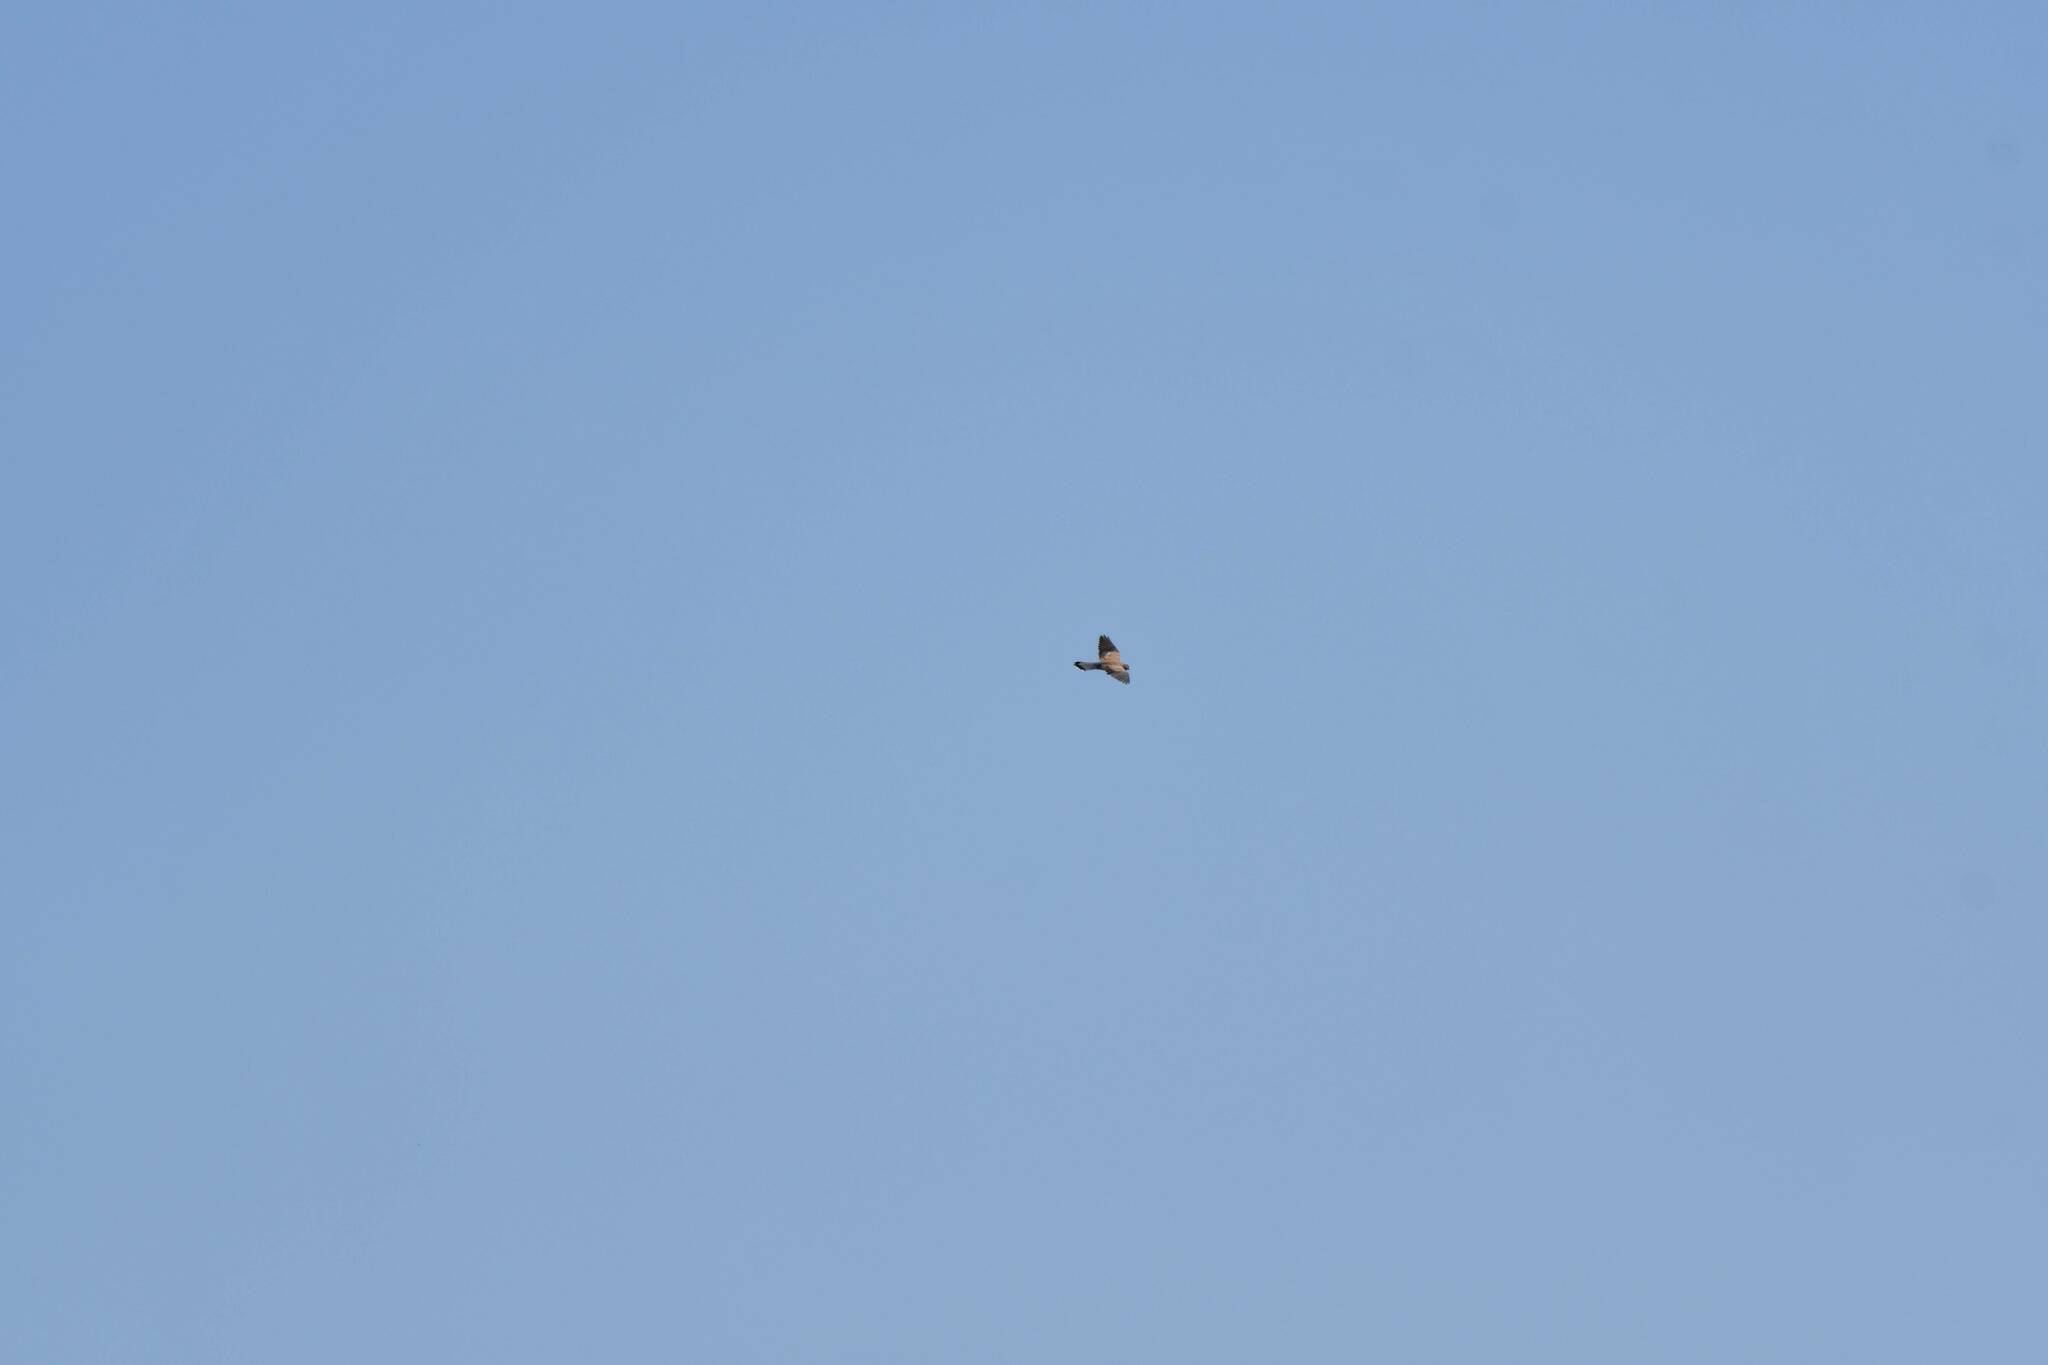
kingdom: Animalia
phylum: Chordata
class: Aves
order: Falconiformes
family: Falconidae
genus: Falco
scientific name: Falco tinnunculus
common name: Common kestrel
